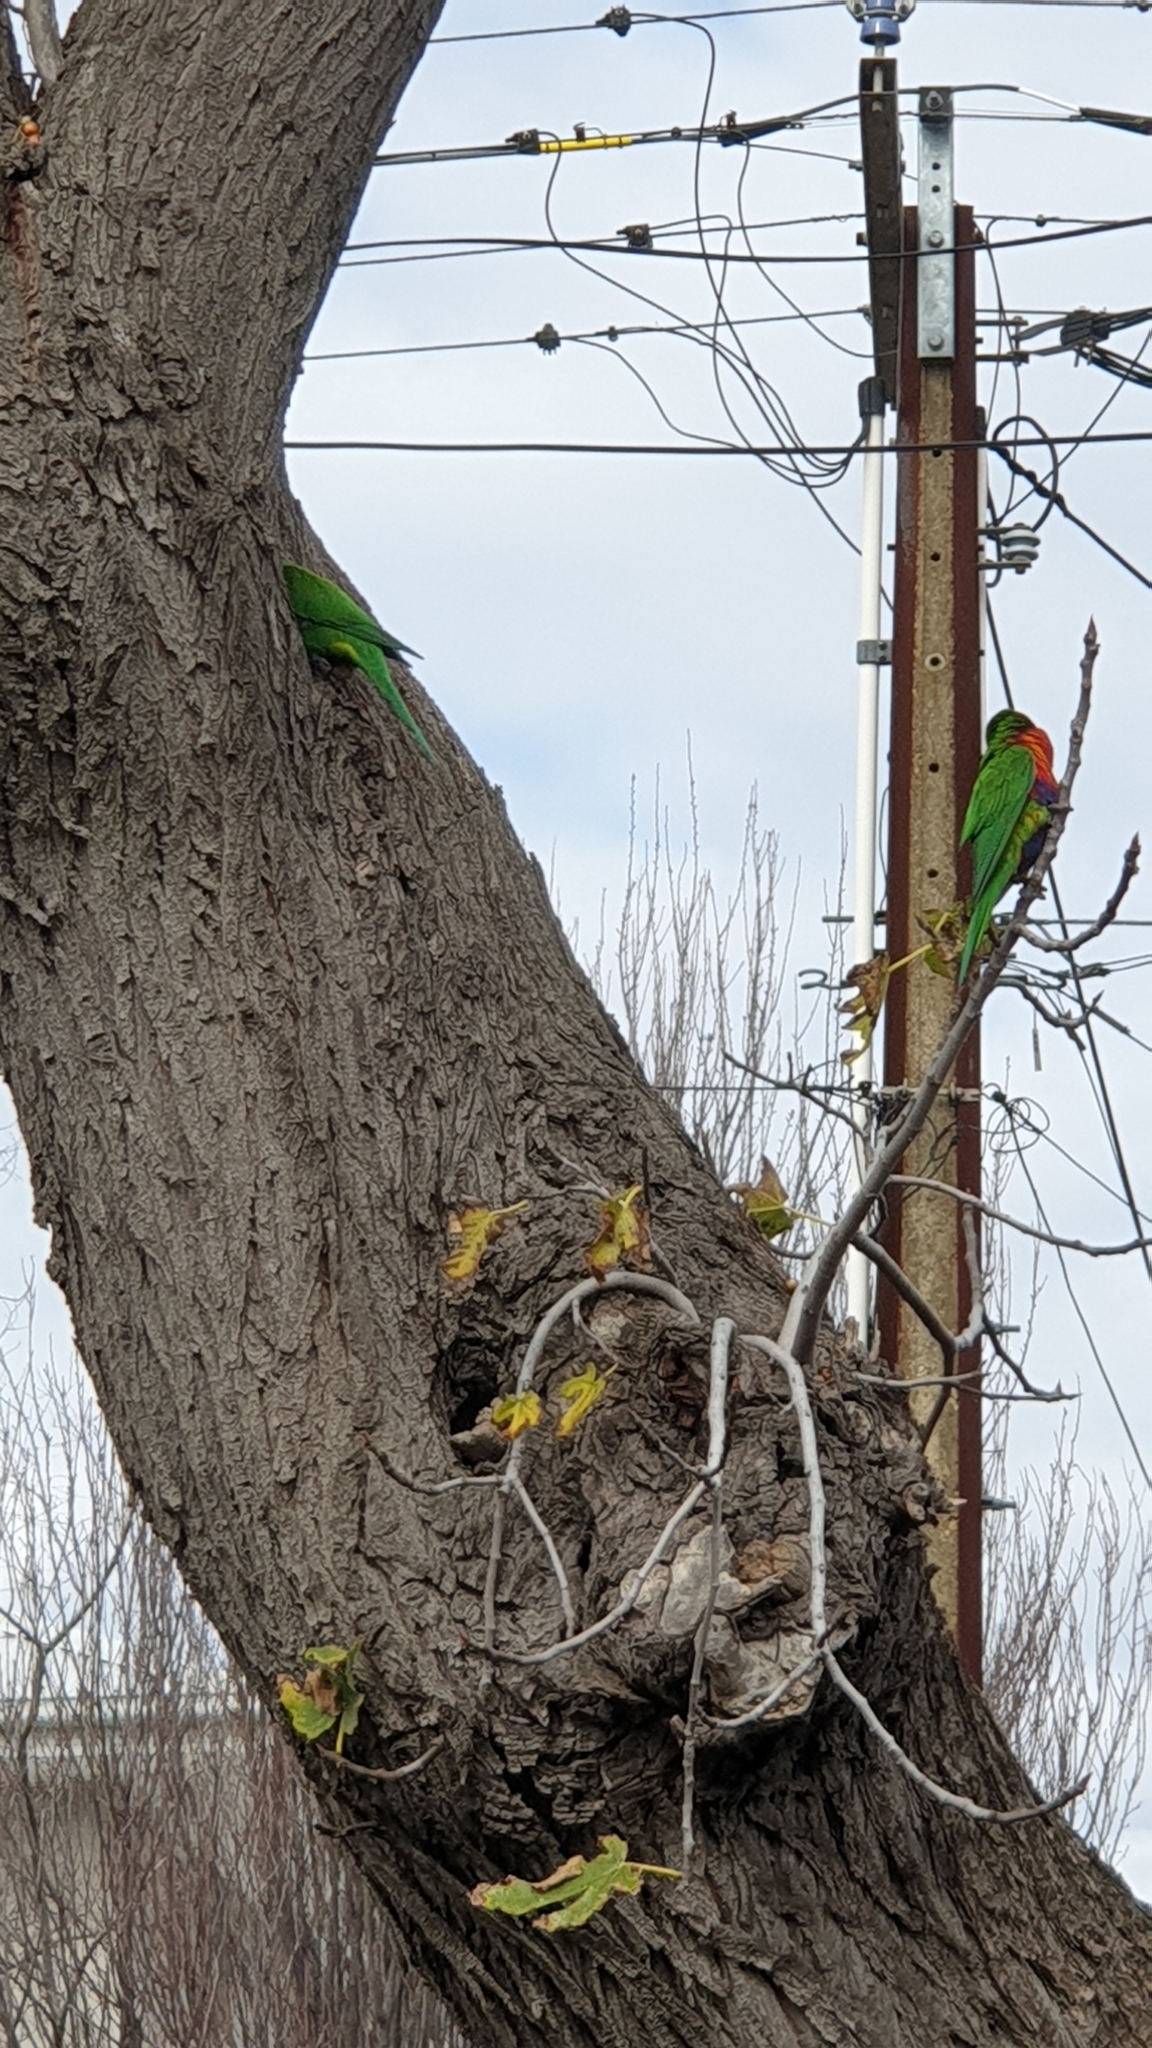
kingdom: Animalia
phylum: Chordata
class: Aves
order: Psittaciformes
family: Psittacidae
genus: Trichoglossus
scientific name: Trichoglossus haematodus
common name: Coconut lorikeet
